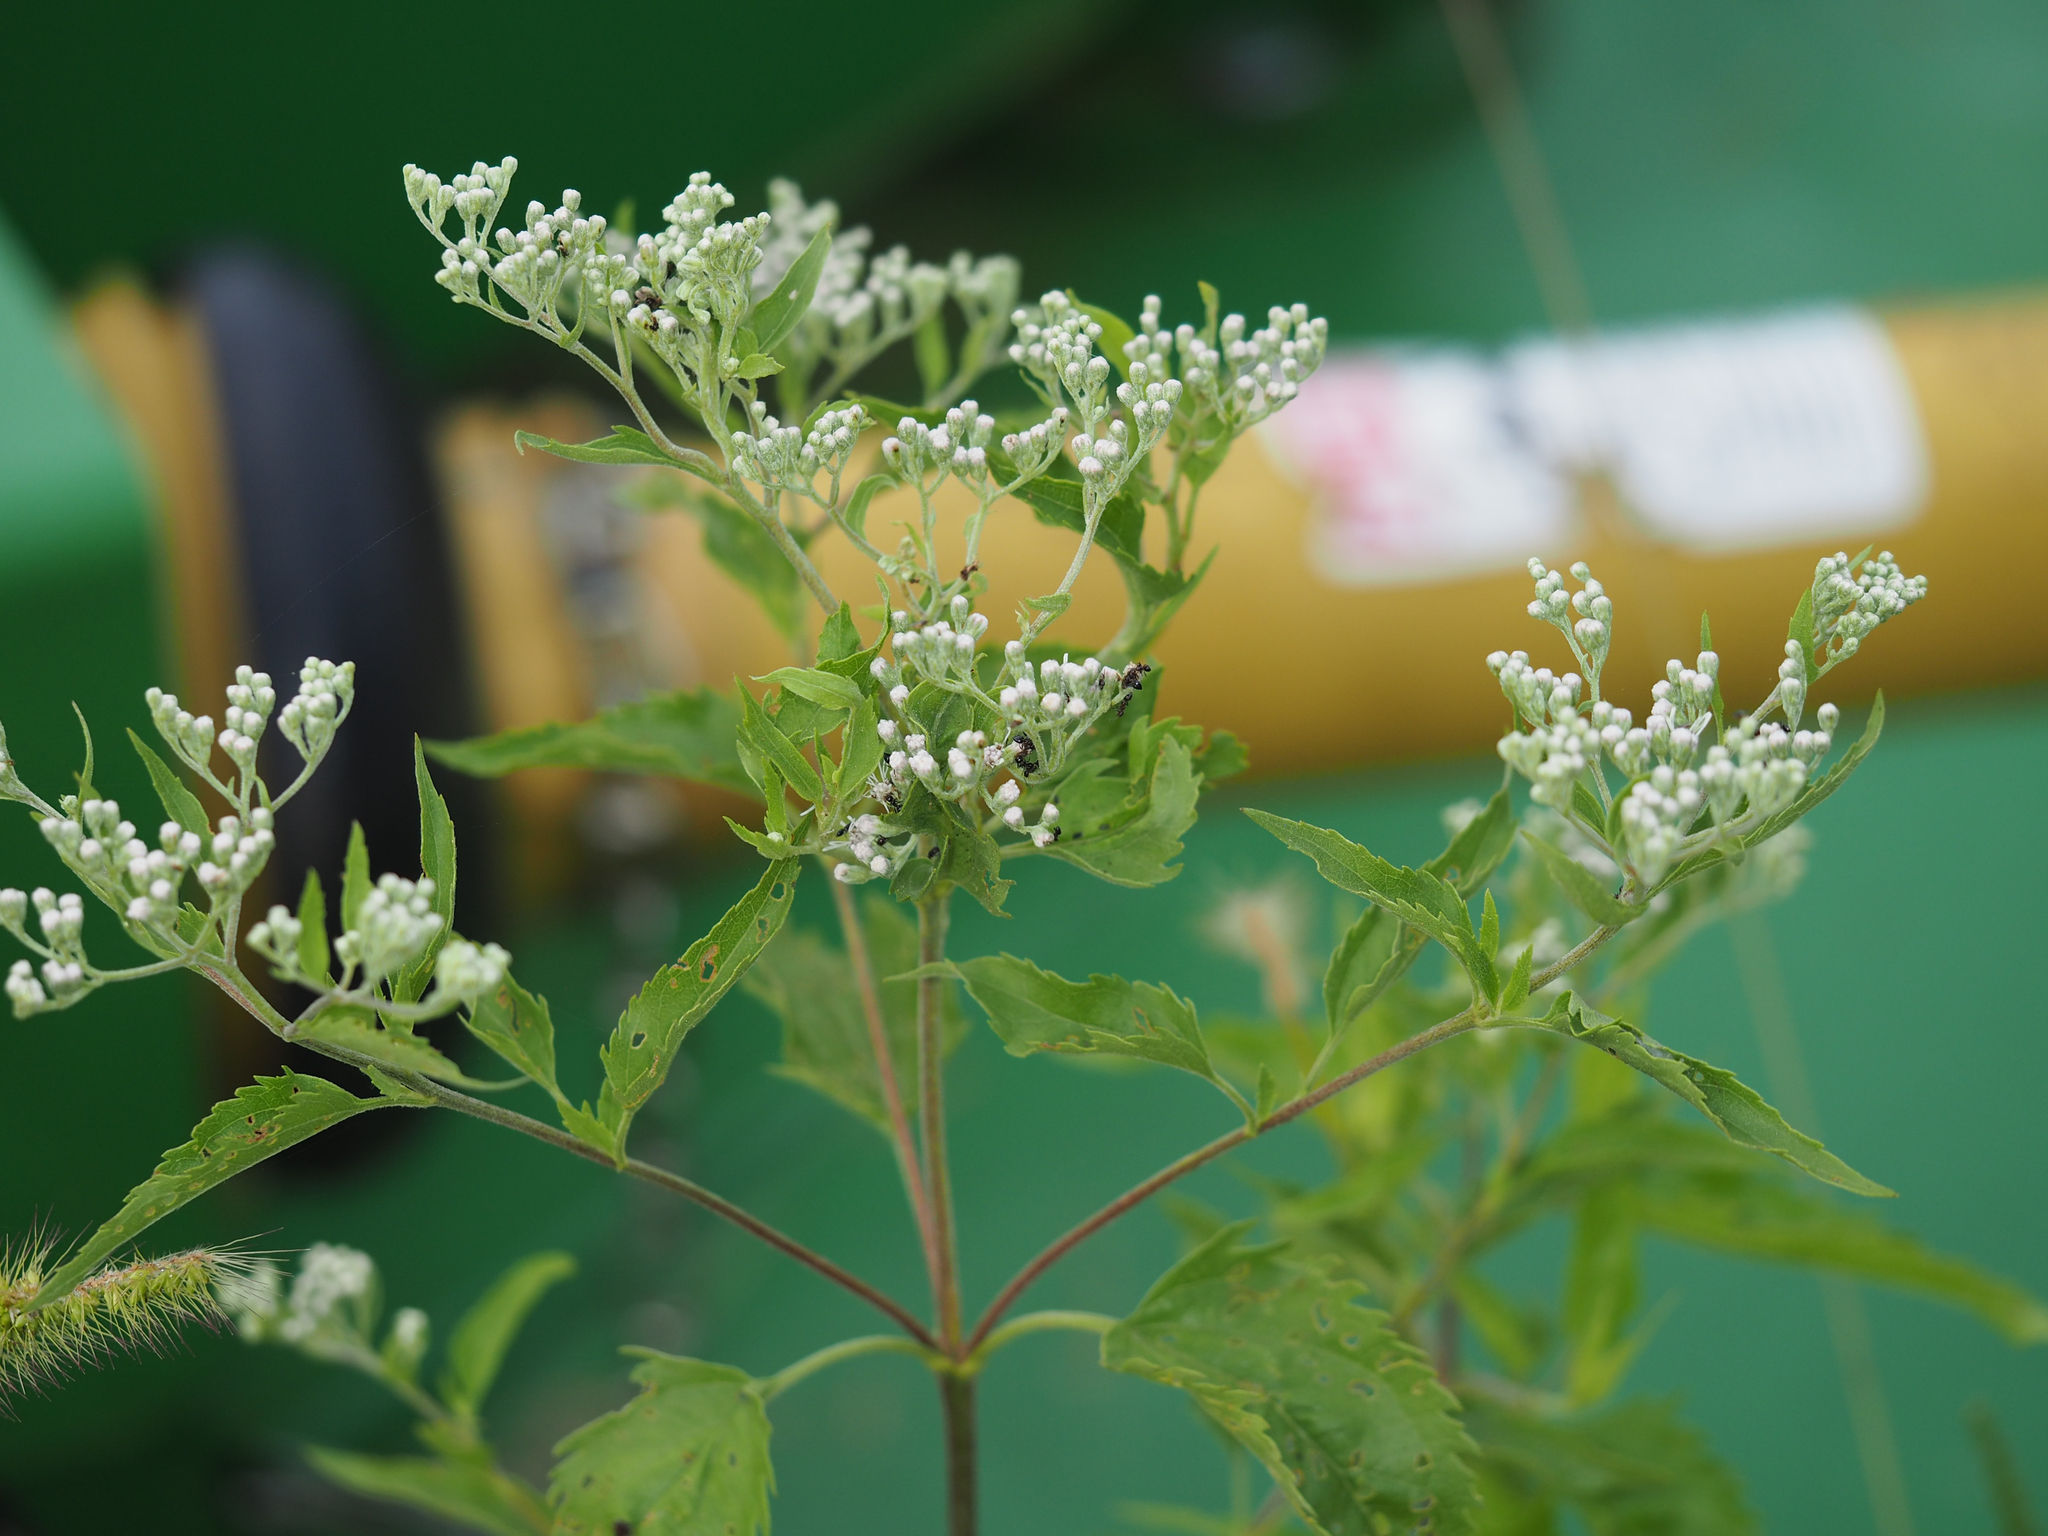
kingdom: Plantae
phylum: Tracheophyta
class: Magnoliopsida
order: Asterales
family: Asteraceae
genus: Eupatorium
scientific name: Eupatorium serotinum
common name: Late boneset
